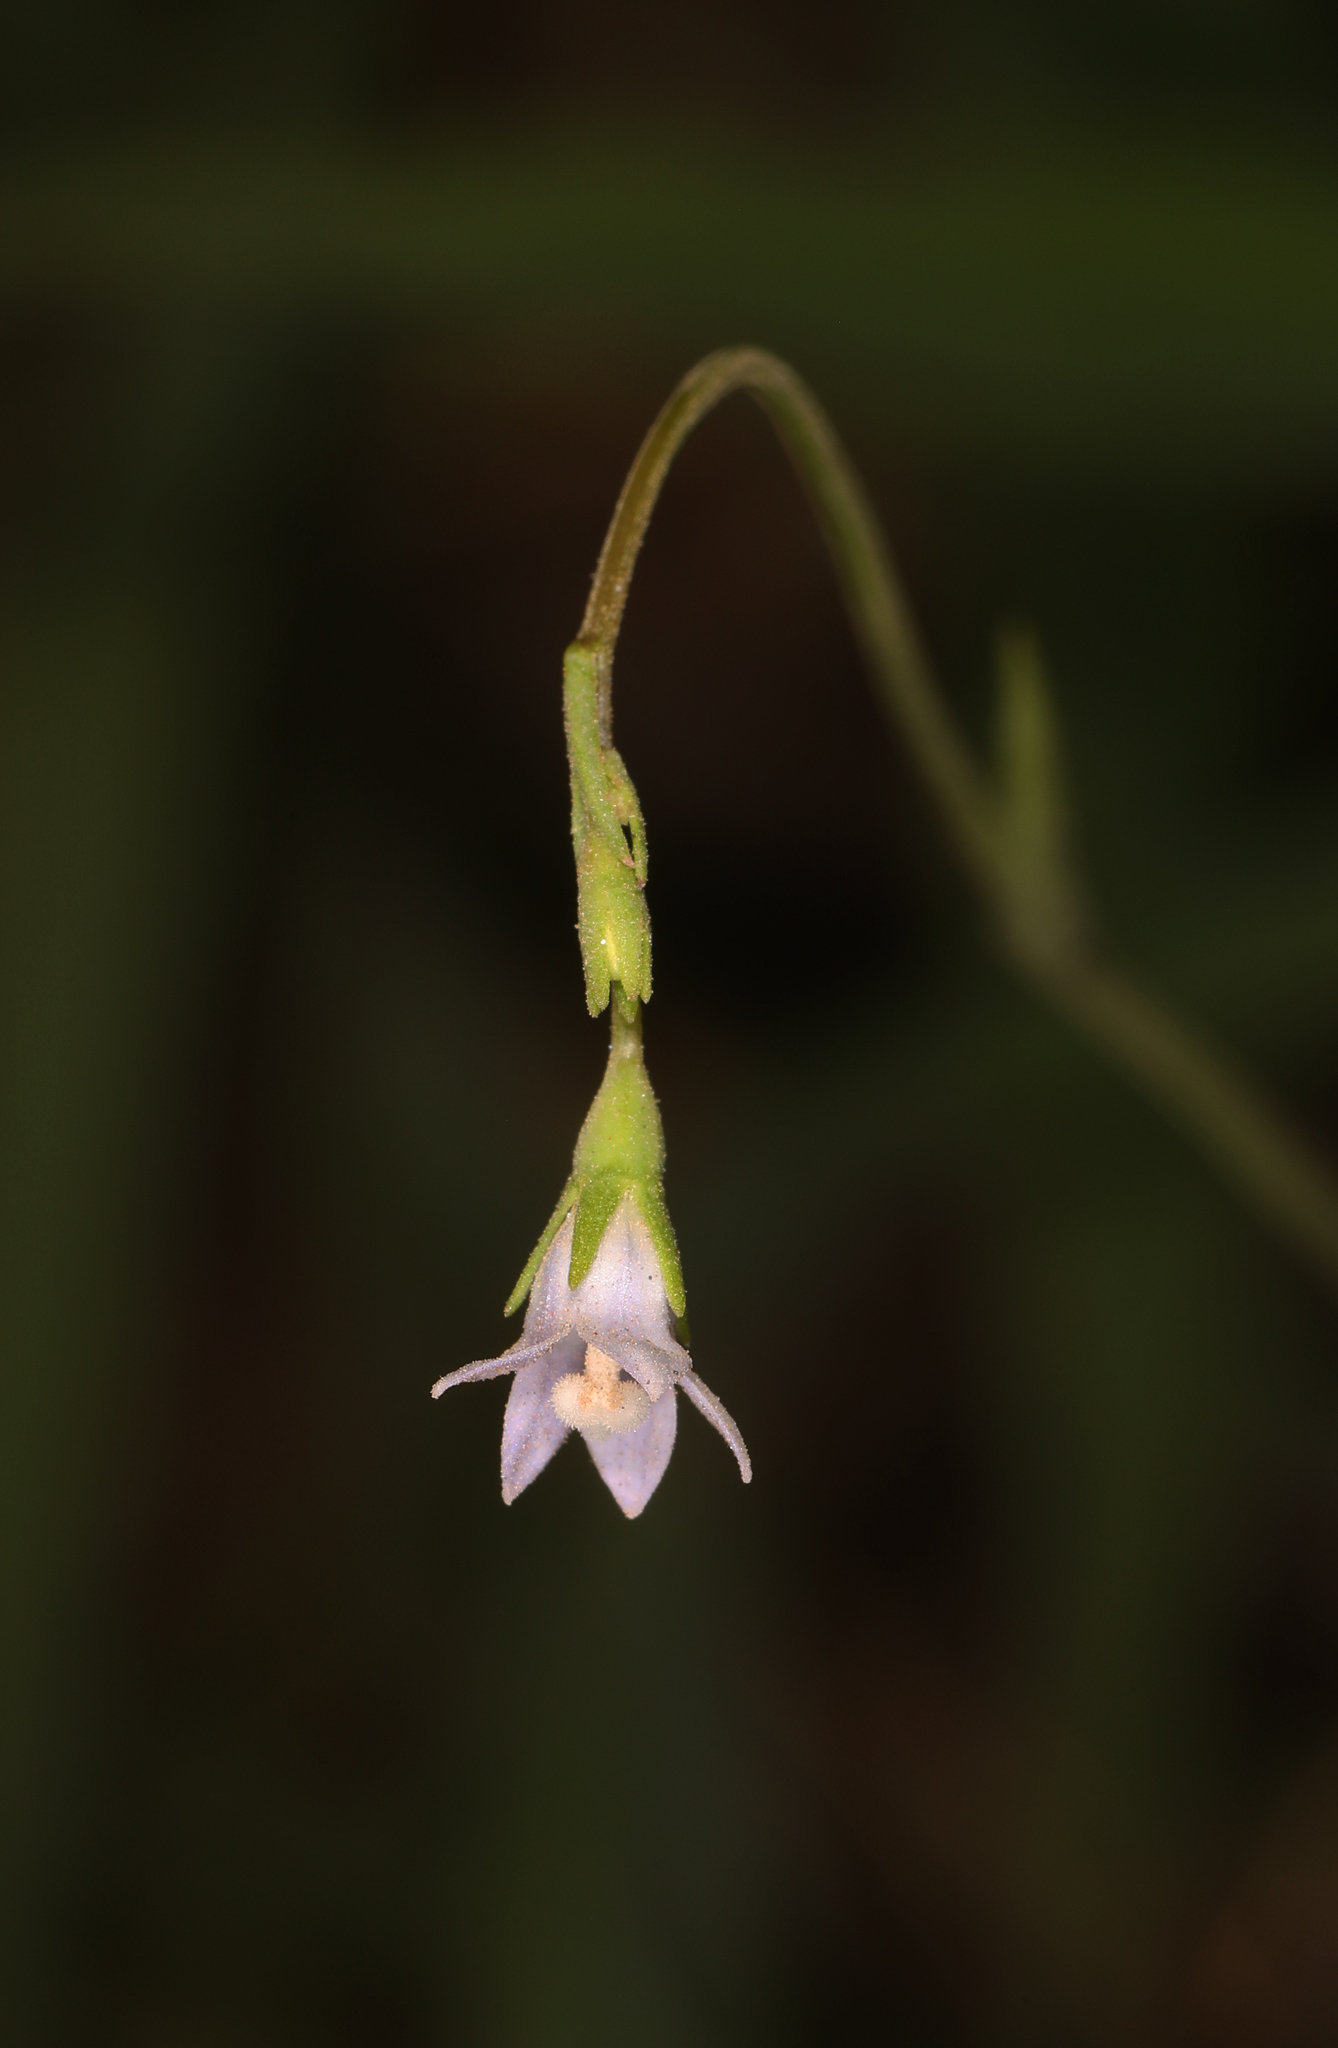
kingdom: Plantae
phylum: Tracheophyta
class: Magnoliopsida
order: Asterales
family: Campanulaceae
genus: Wahlenbergia
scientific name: Wahlenbergia marginata
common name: Southern rockbell
